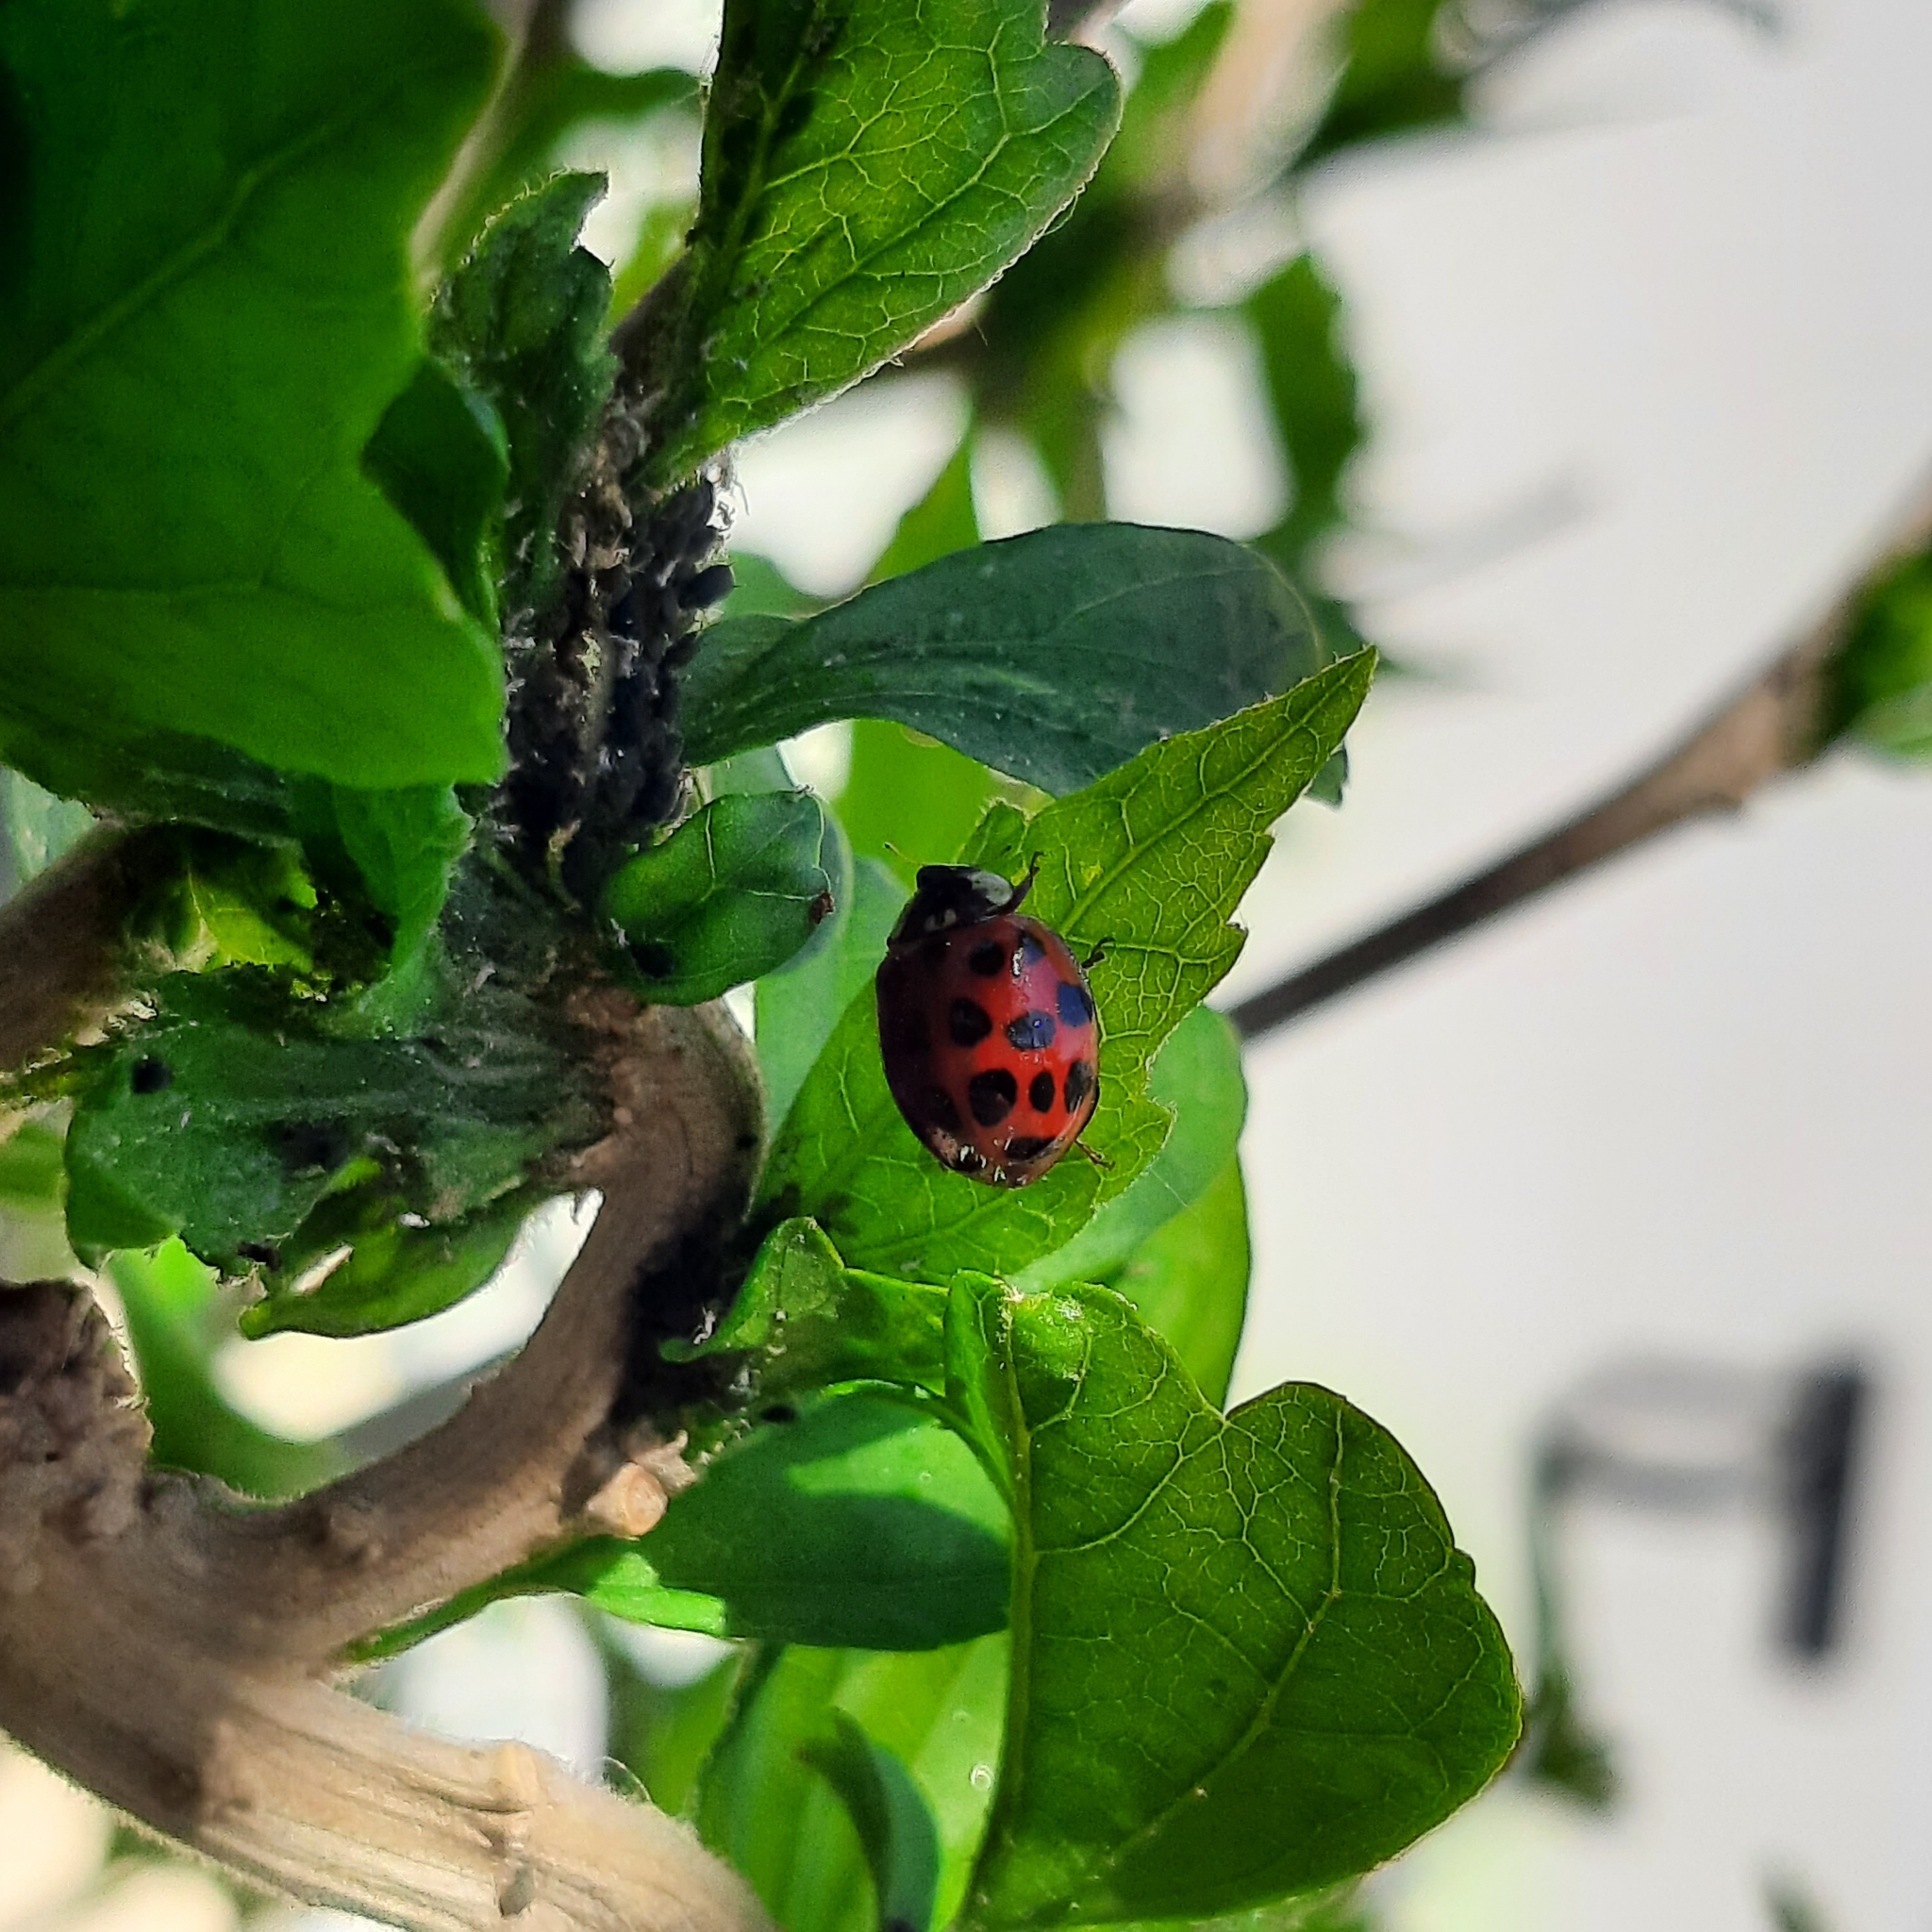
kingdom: Animalia
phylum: Arthropoda
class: Insecta
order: Coleoptera
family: Coccinellidae
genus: Harmonia
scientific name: Harmonia axyridis
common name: Harlequin ladybird
